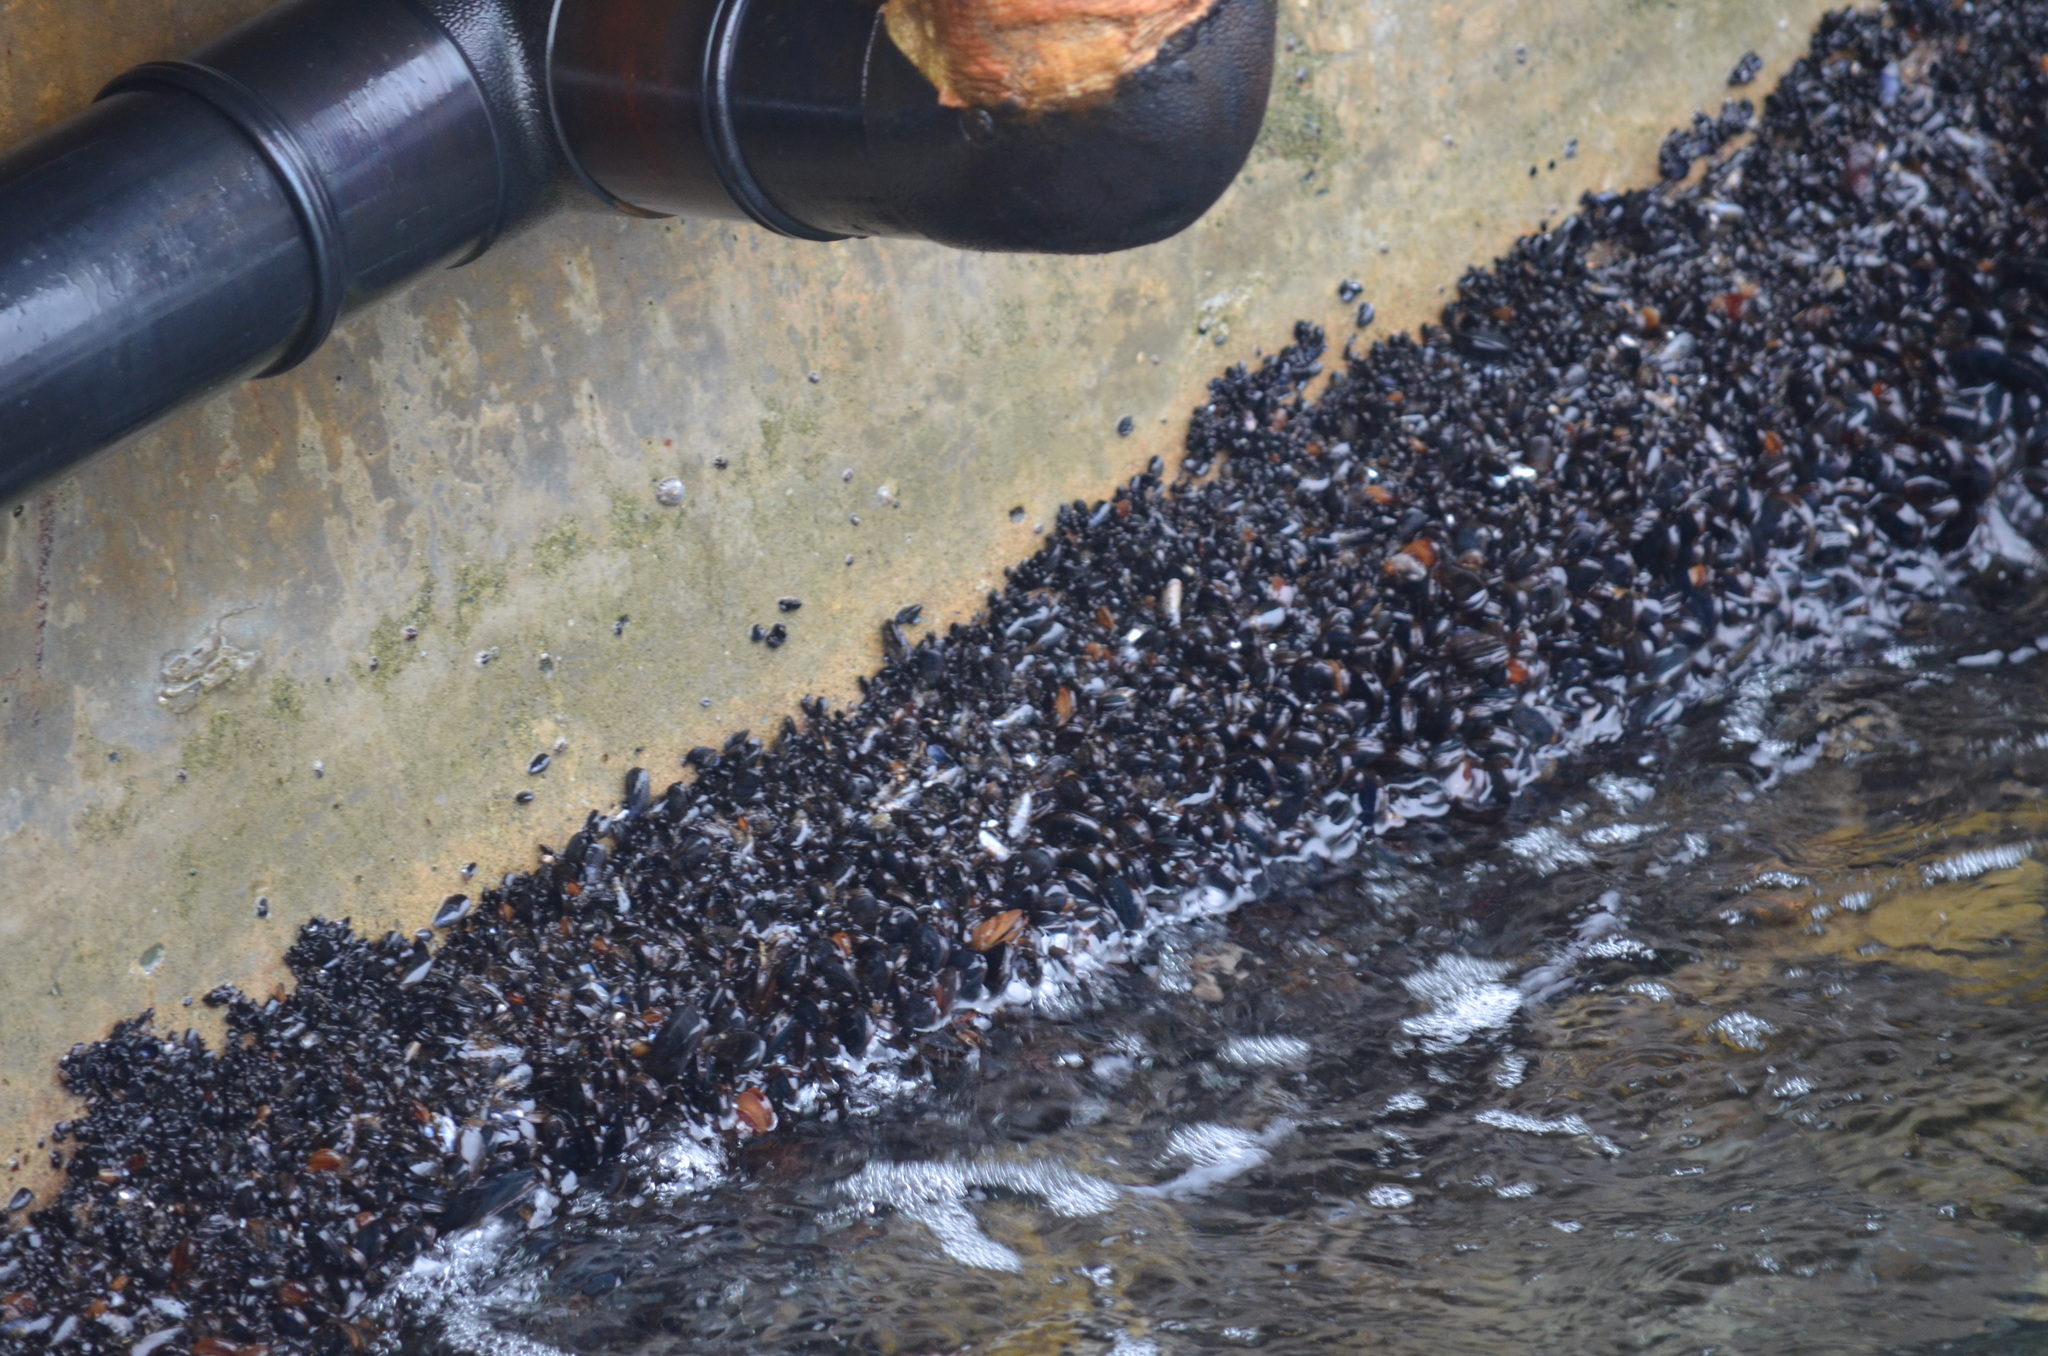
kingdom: Animalia
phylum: Mollusca
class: Bivalvia
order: Mytilida
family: Mytilidae
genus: Mytilus
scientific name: Mytilus
